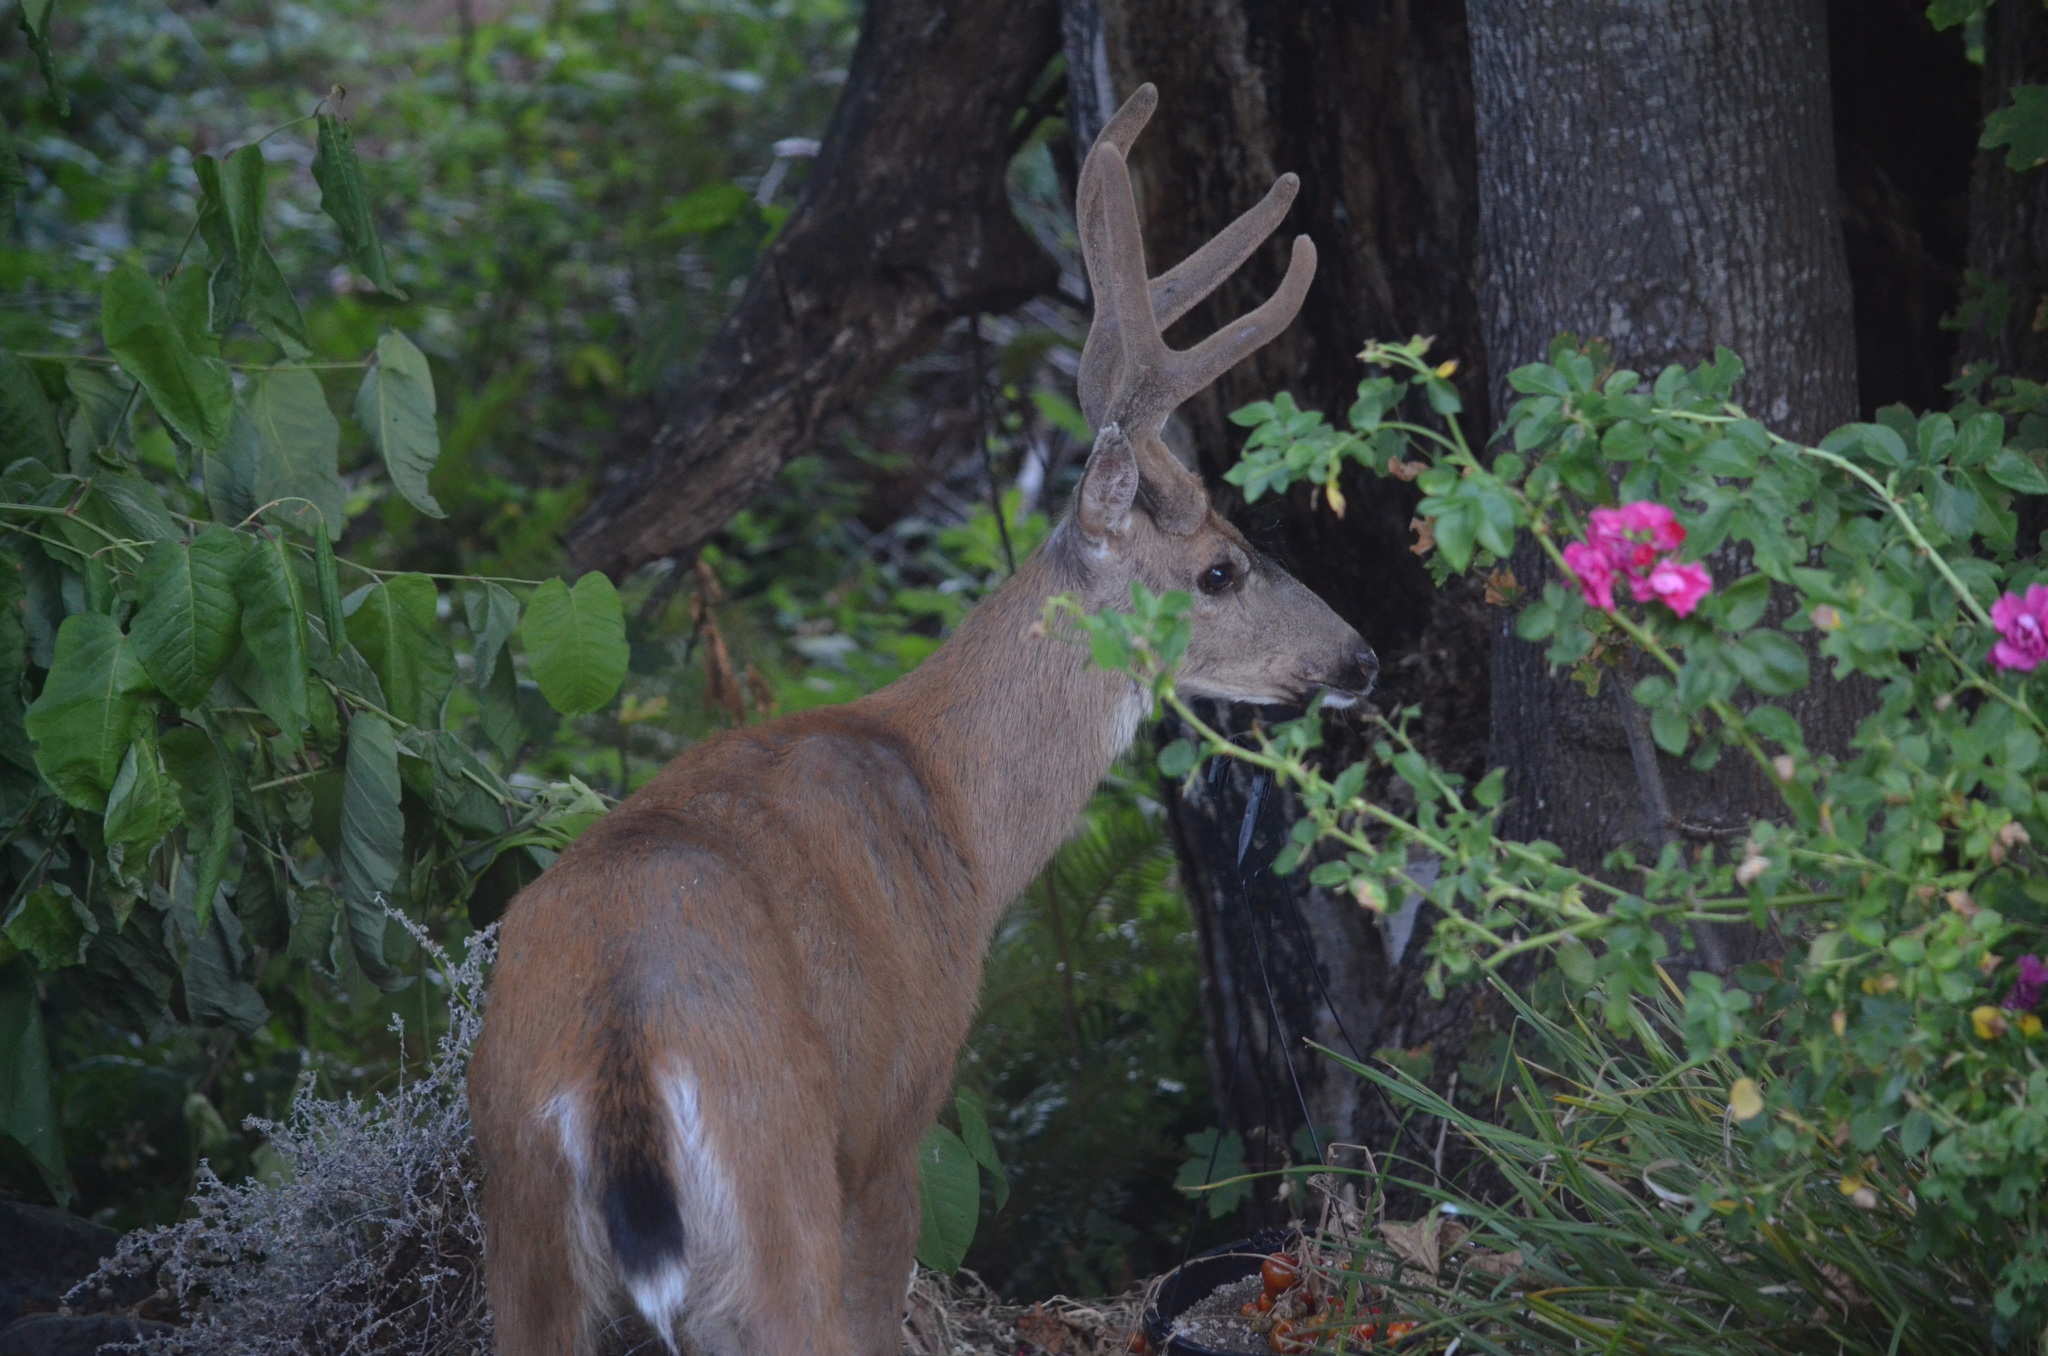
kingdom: Animalia
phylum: Chordata
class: Mammalia
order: Artiodactyla
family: Cervidae
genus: Odocoileus
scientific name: Odocoileus hemionus
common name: Mule deer
